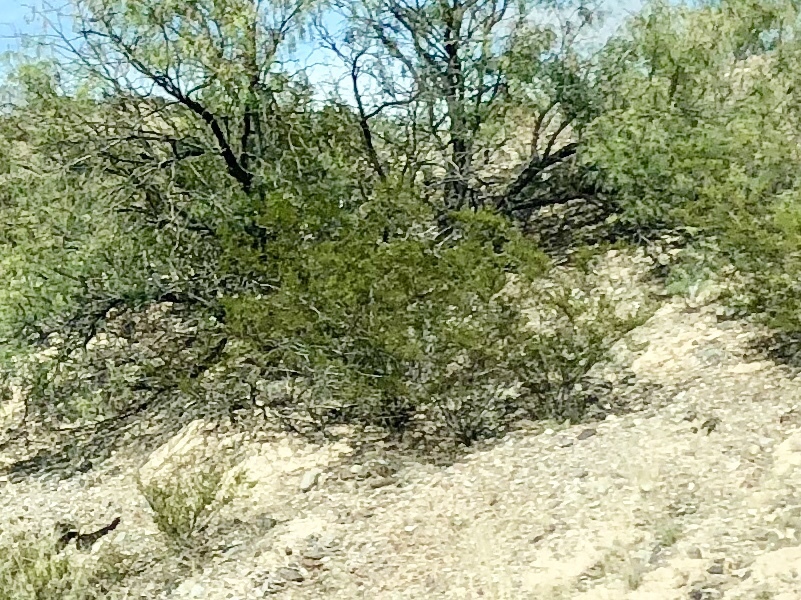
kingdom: Plantae
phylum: Tracheophyta
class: Magnoliopsida
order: Zygophyllales
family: Zygophyllaceae
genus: Larrea
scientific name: Larrea tridentata
